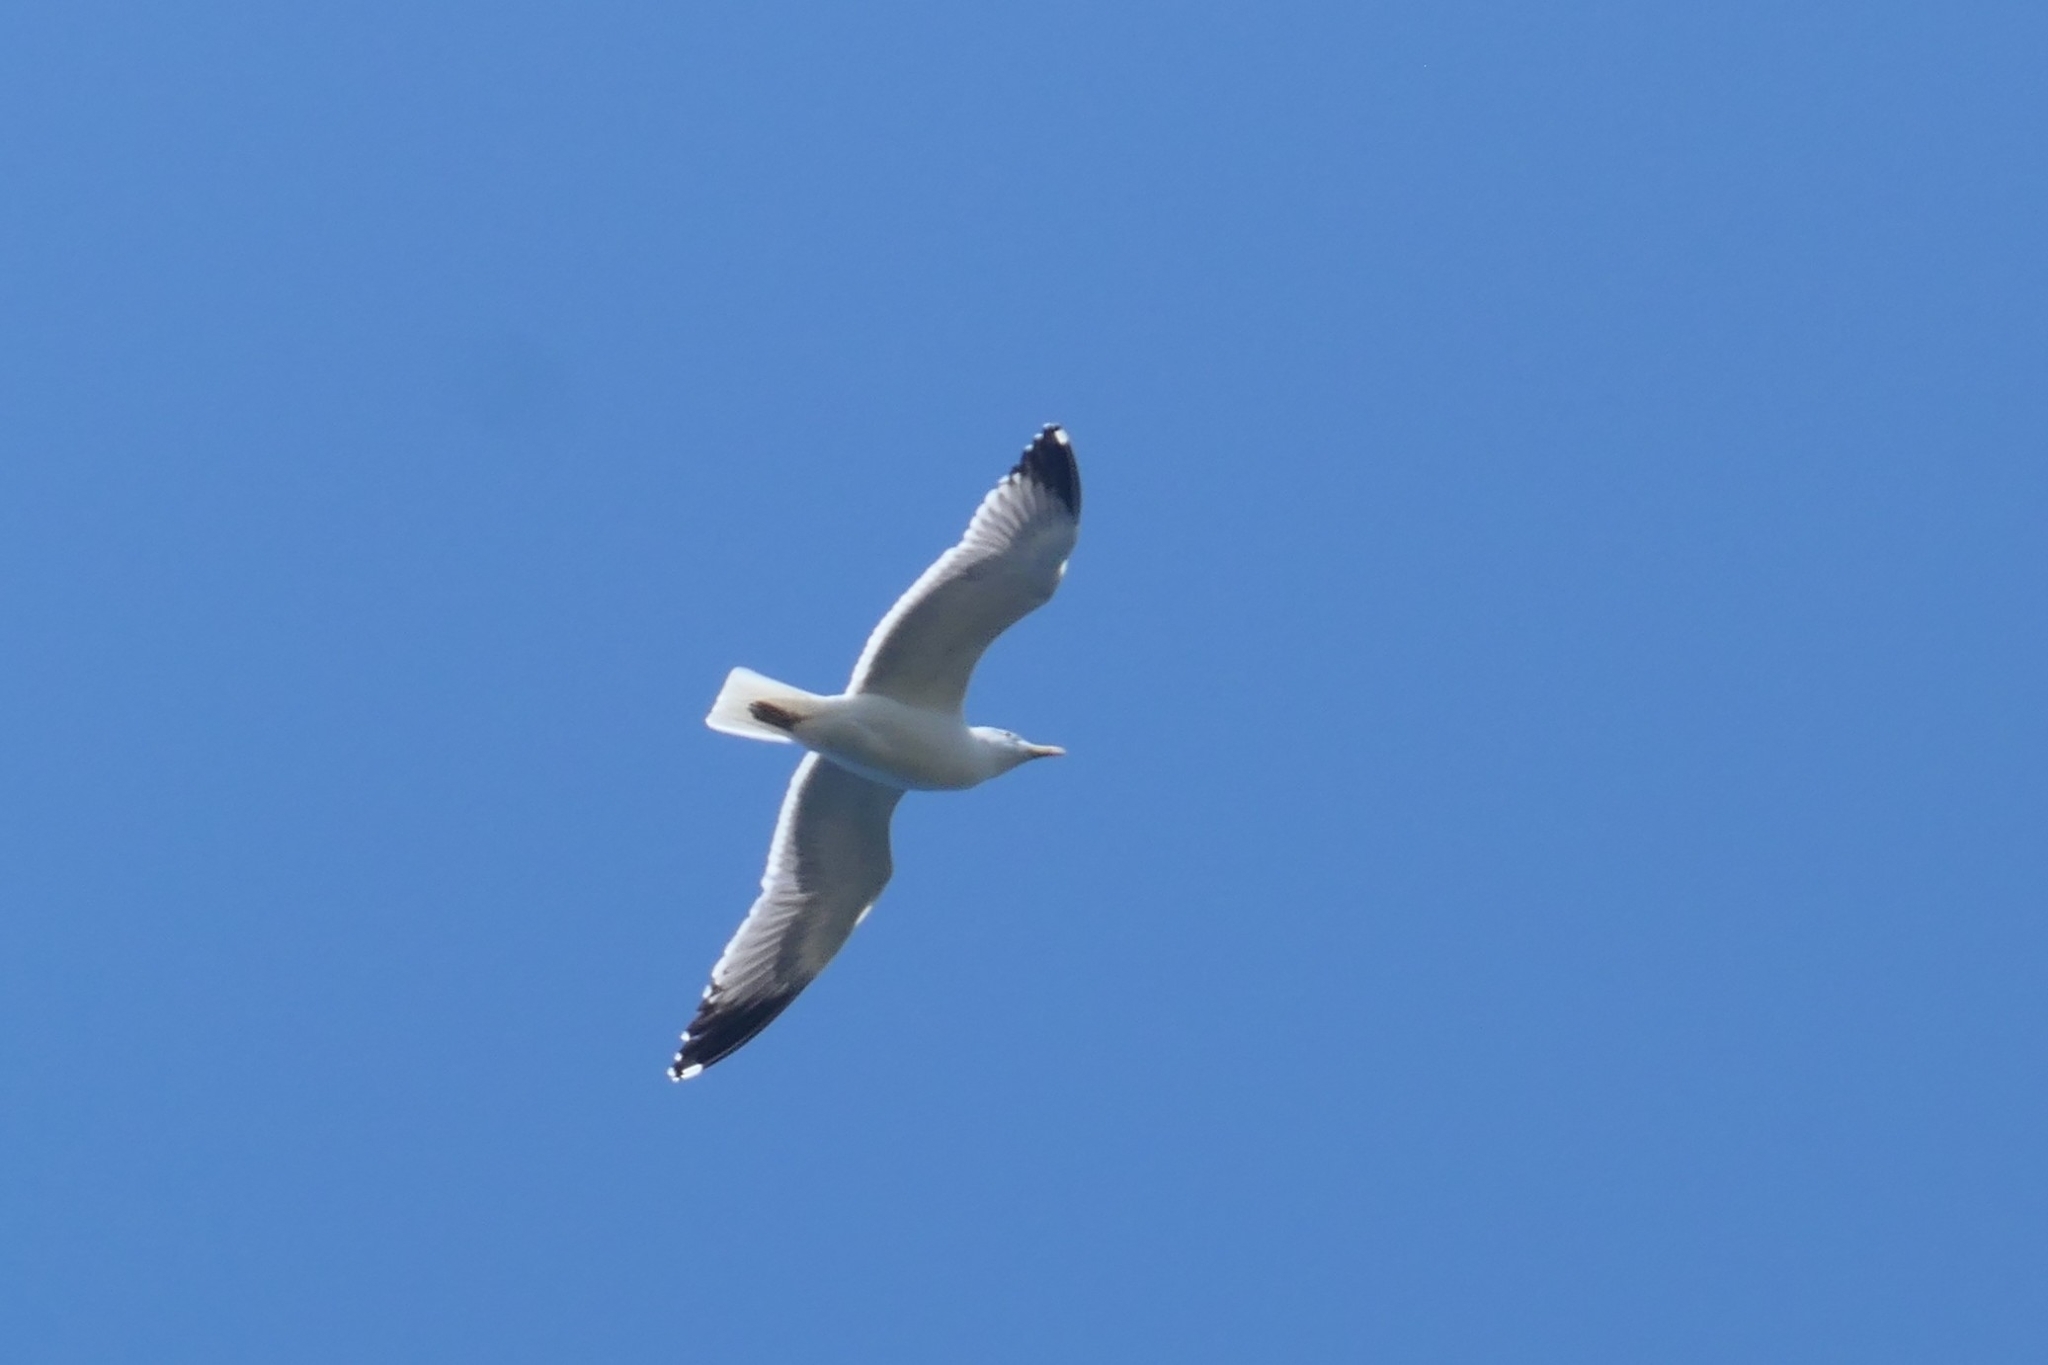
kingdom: Animalia
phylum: Chordata
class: Aves
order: Charadriiformes
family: Laridae
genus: Larus
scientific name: Larus michahellis
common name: Yellow-legged gull
